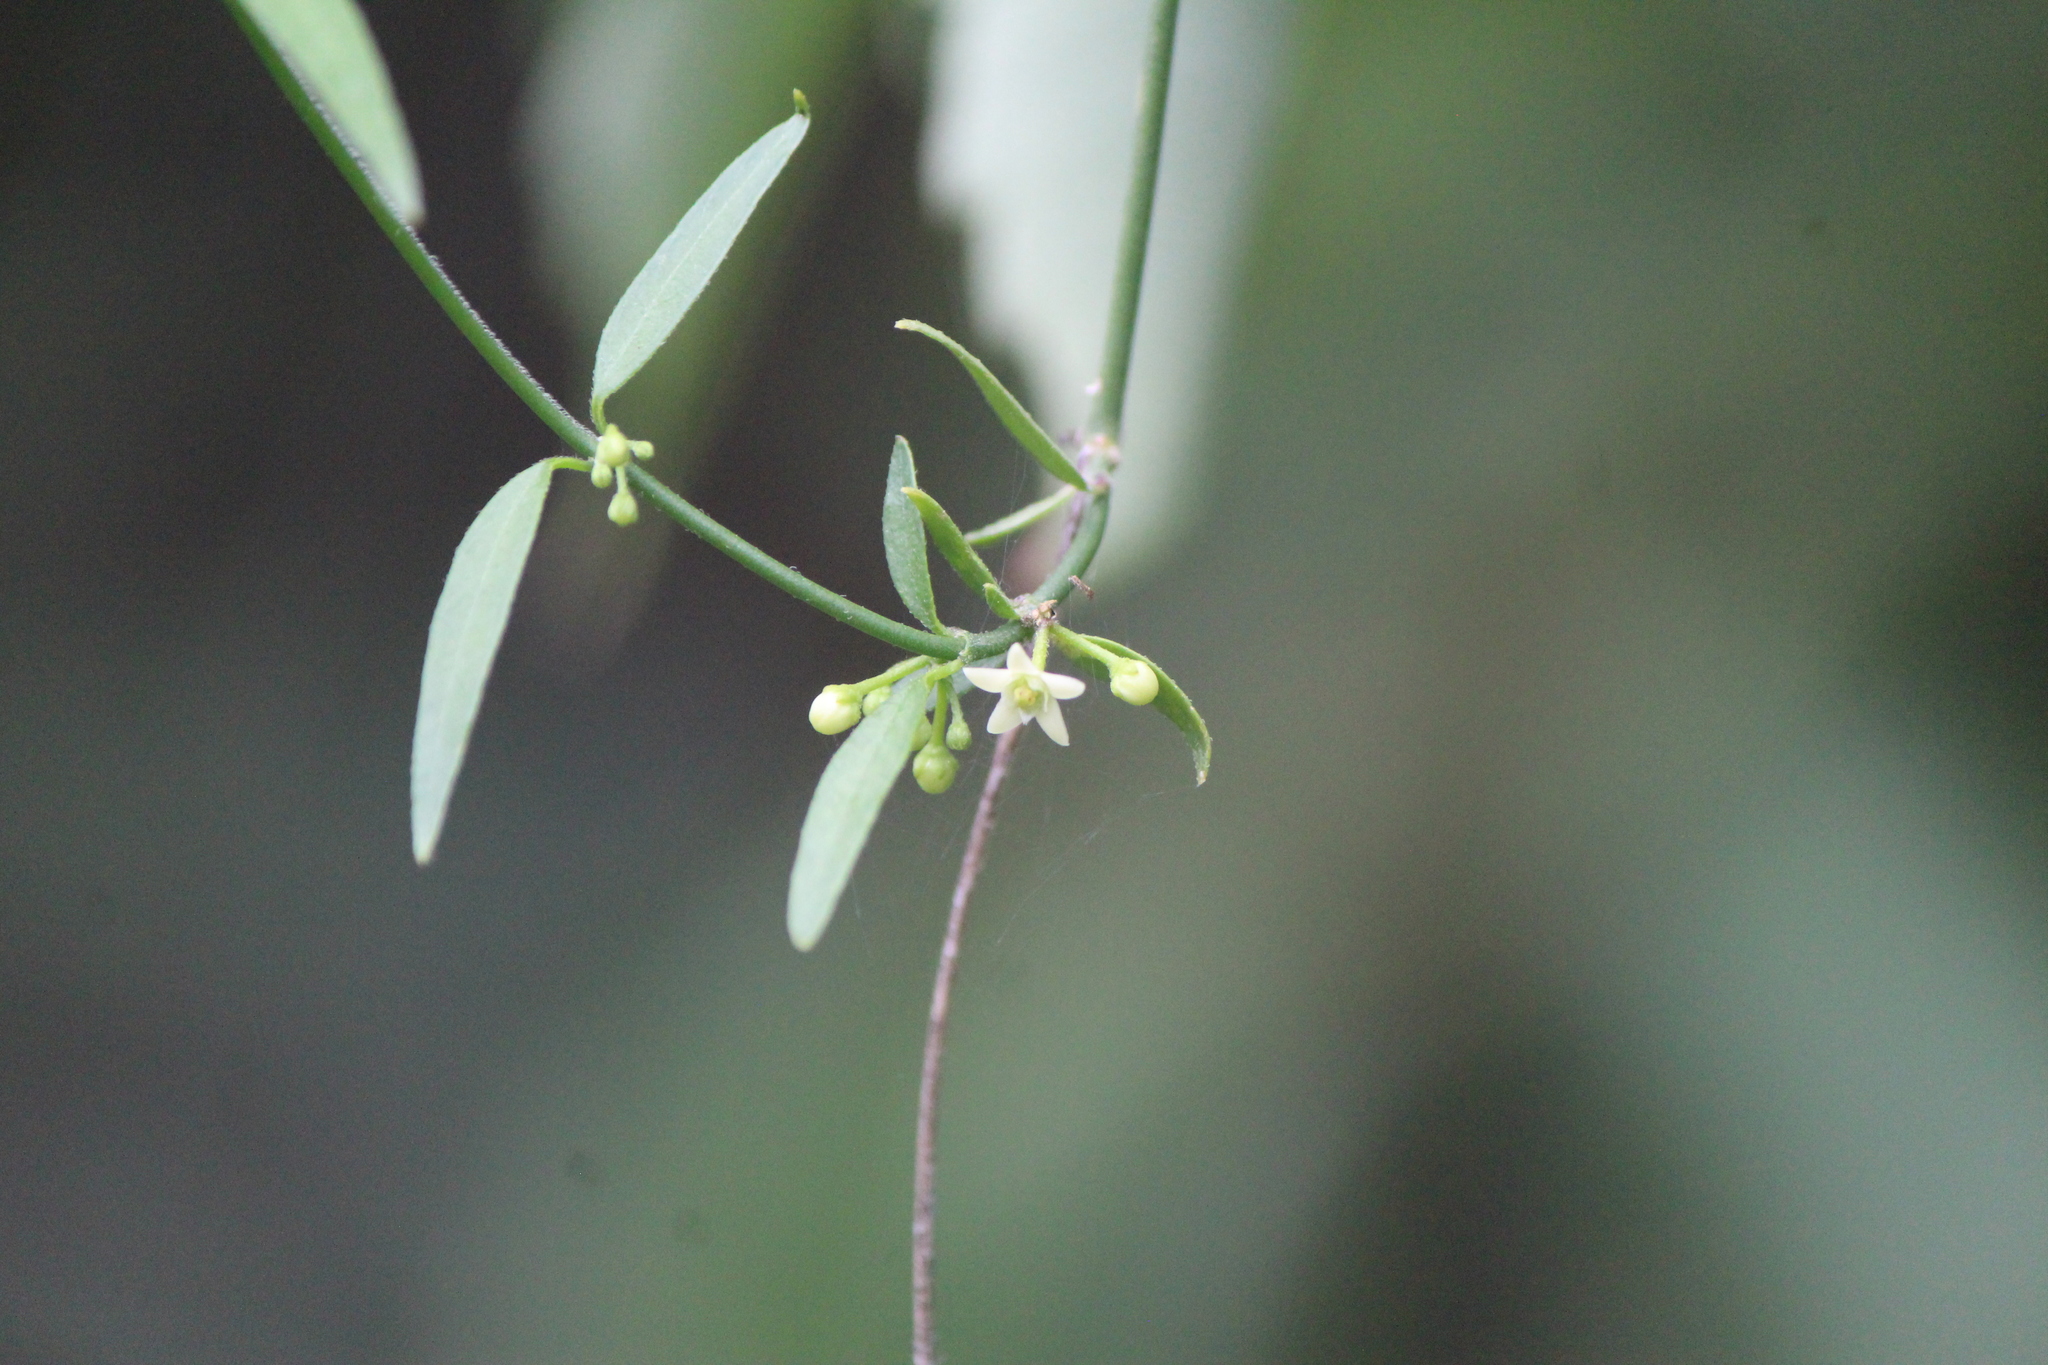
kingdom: Plantae
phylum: Tracheophyta
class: Magnoliopsida
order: Gentianales
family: Apocynaceae
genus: Metastelma
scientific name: Metastelma angustifolium
